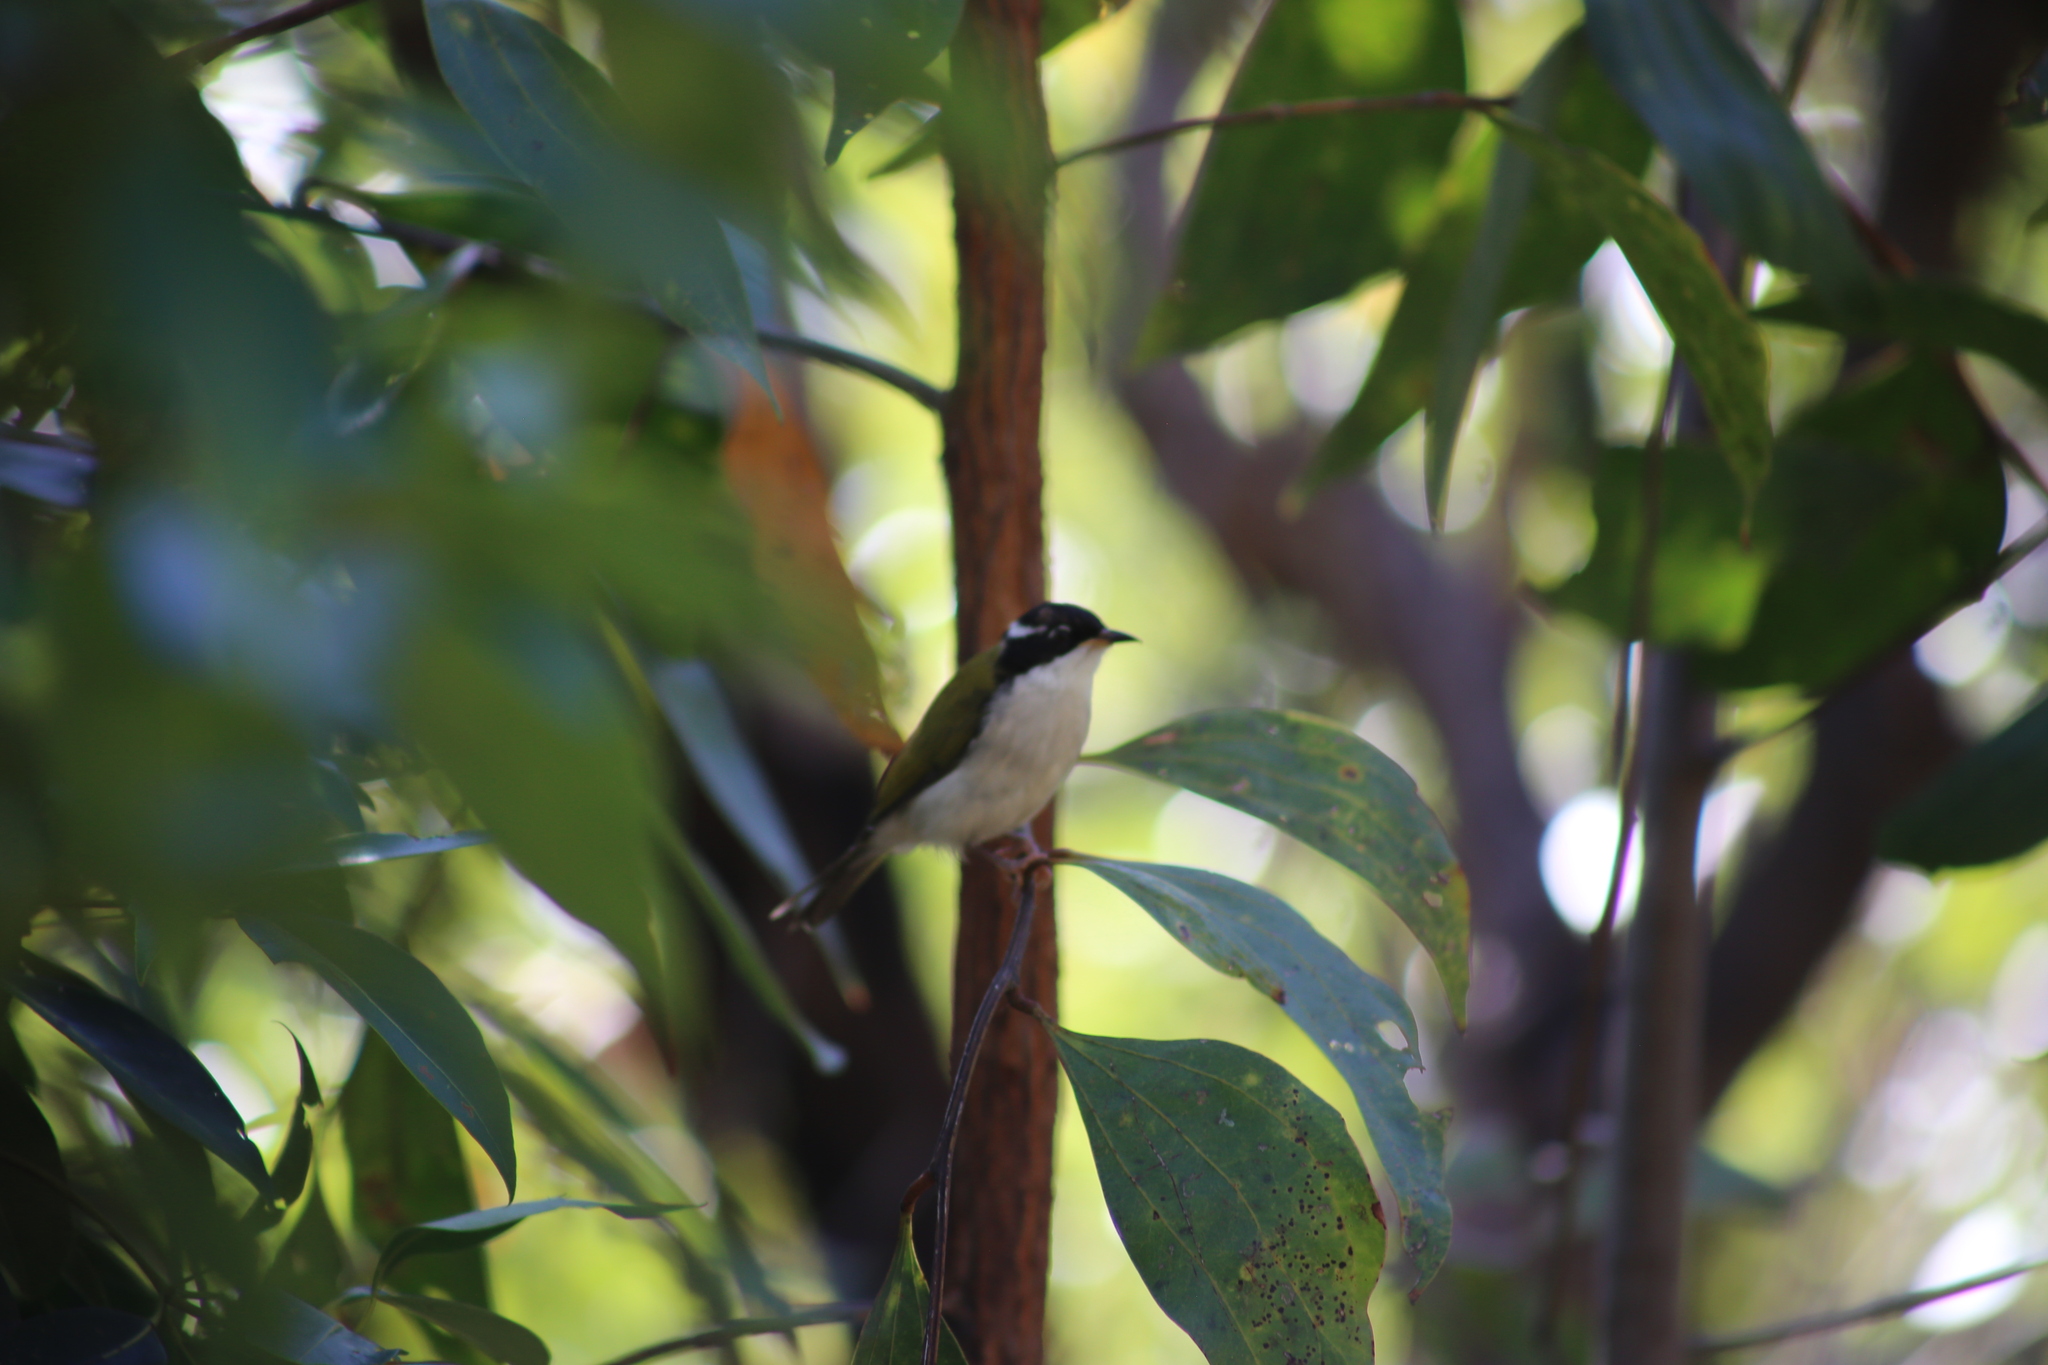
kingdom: Animalia
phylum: Chordata
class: Aves
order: Passeriformes
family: Meliphagidae
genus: Melithreptus
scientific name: Melithreptus albogularis
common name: White-throated honeyeater
